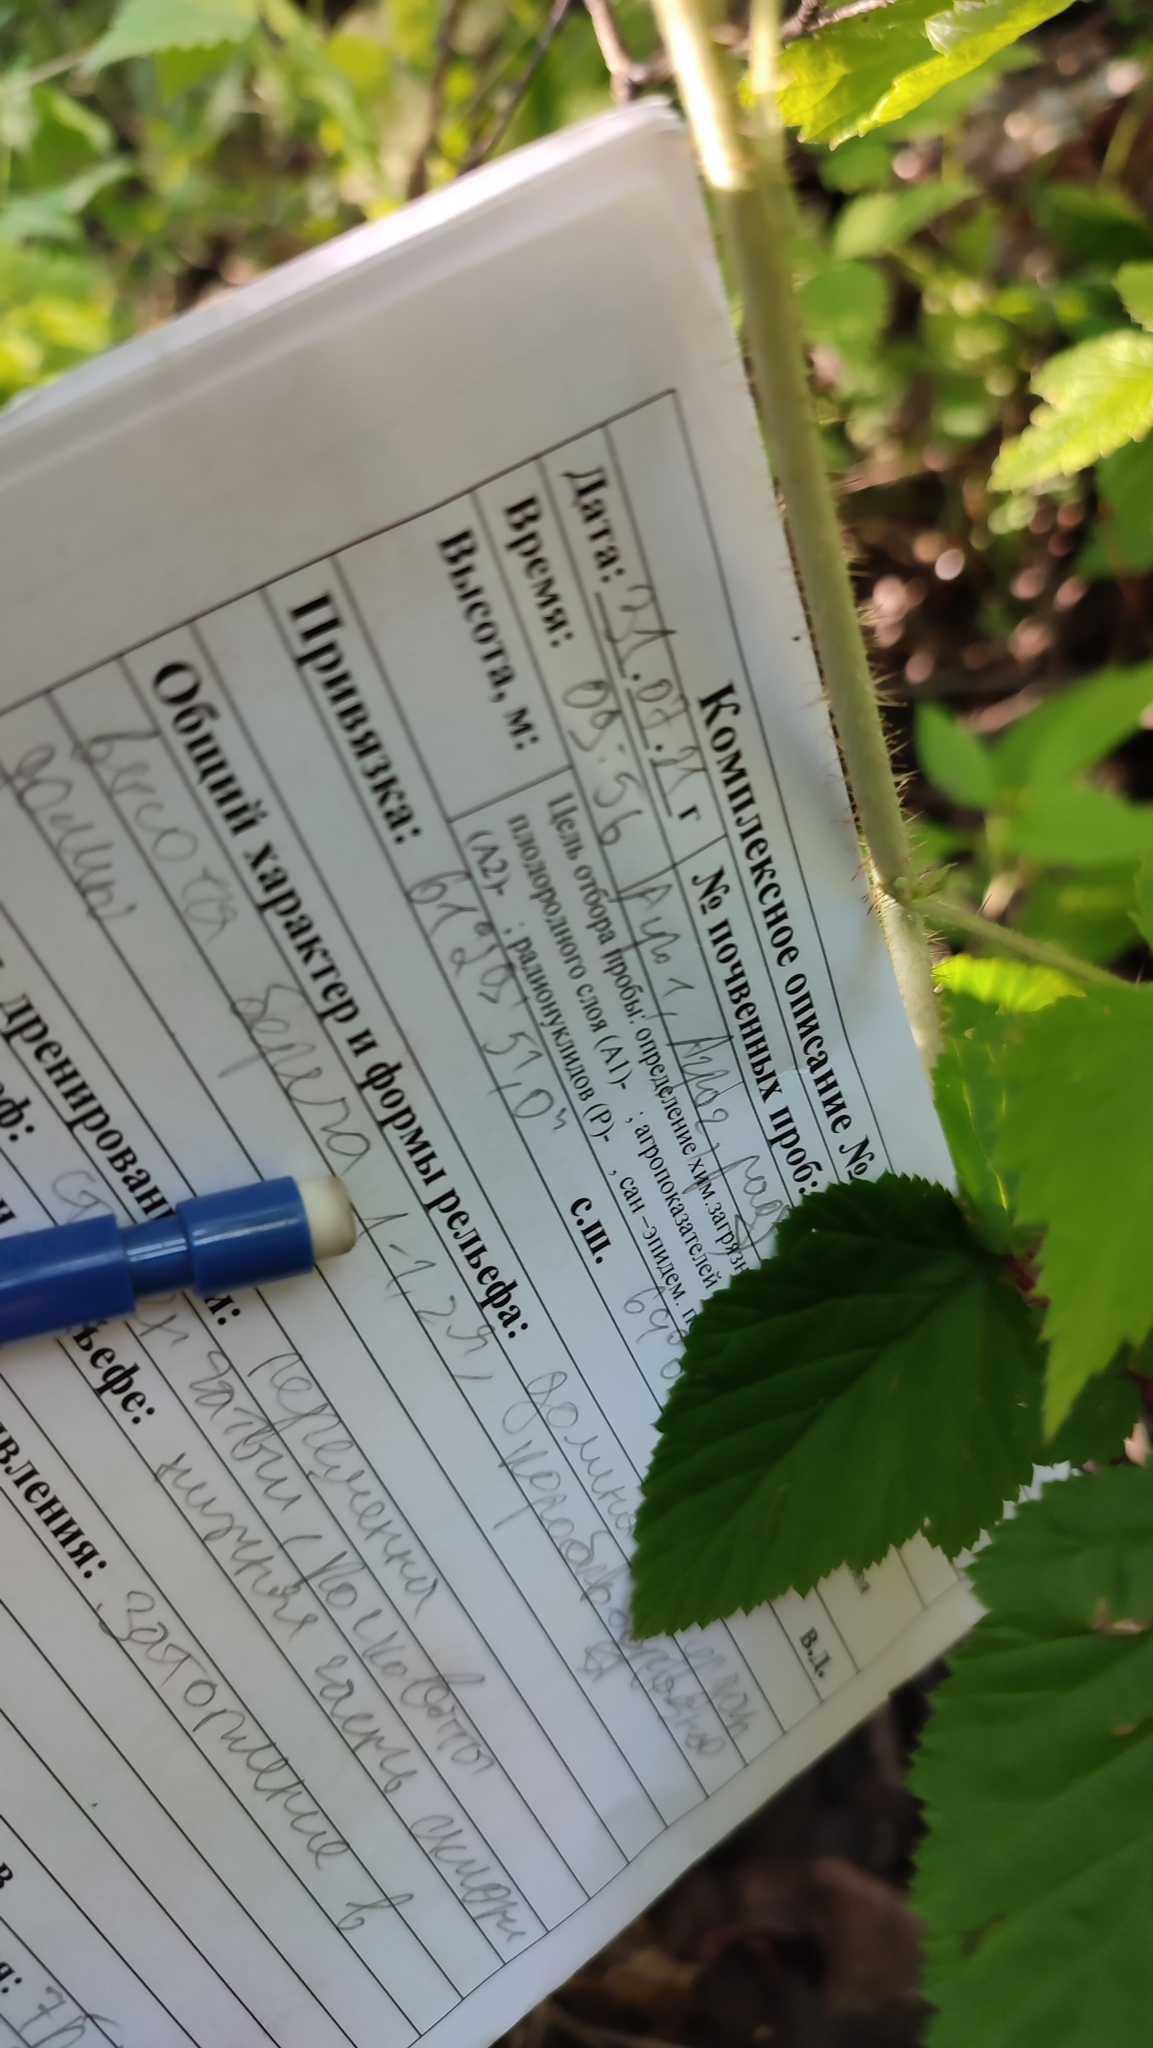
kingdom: Plantae
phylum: Tracheophyta
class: Magnoliopsida
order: Rosales
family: Rosaceae
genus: Rubus
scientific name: Rubus idaeus
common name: Raspberry
